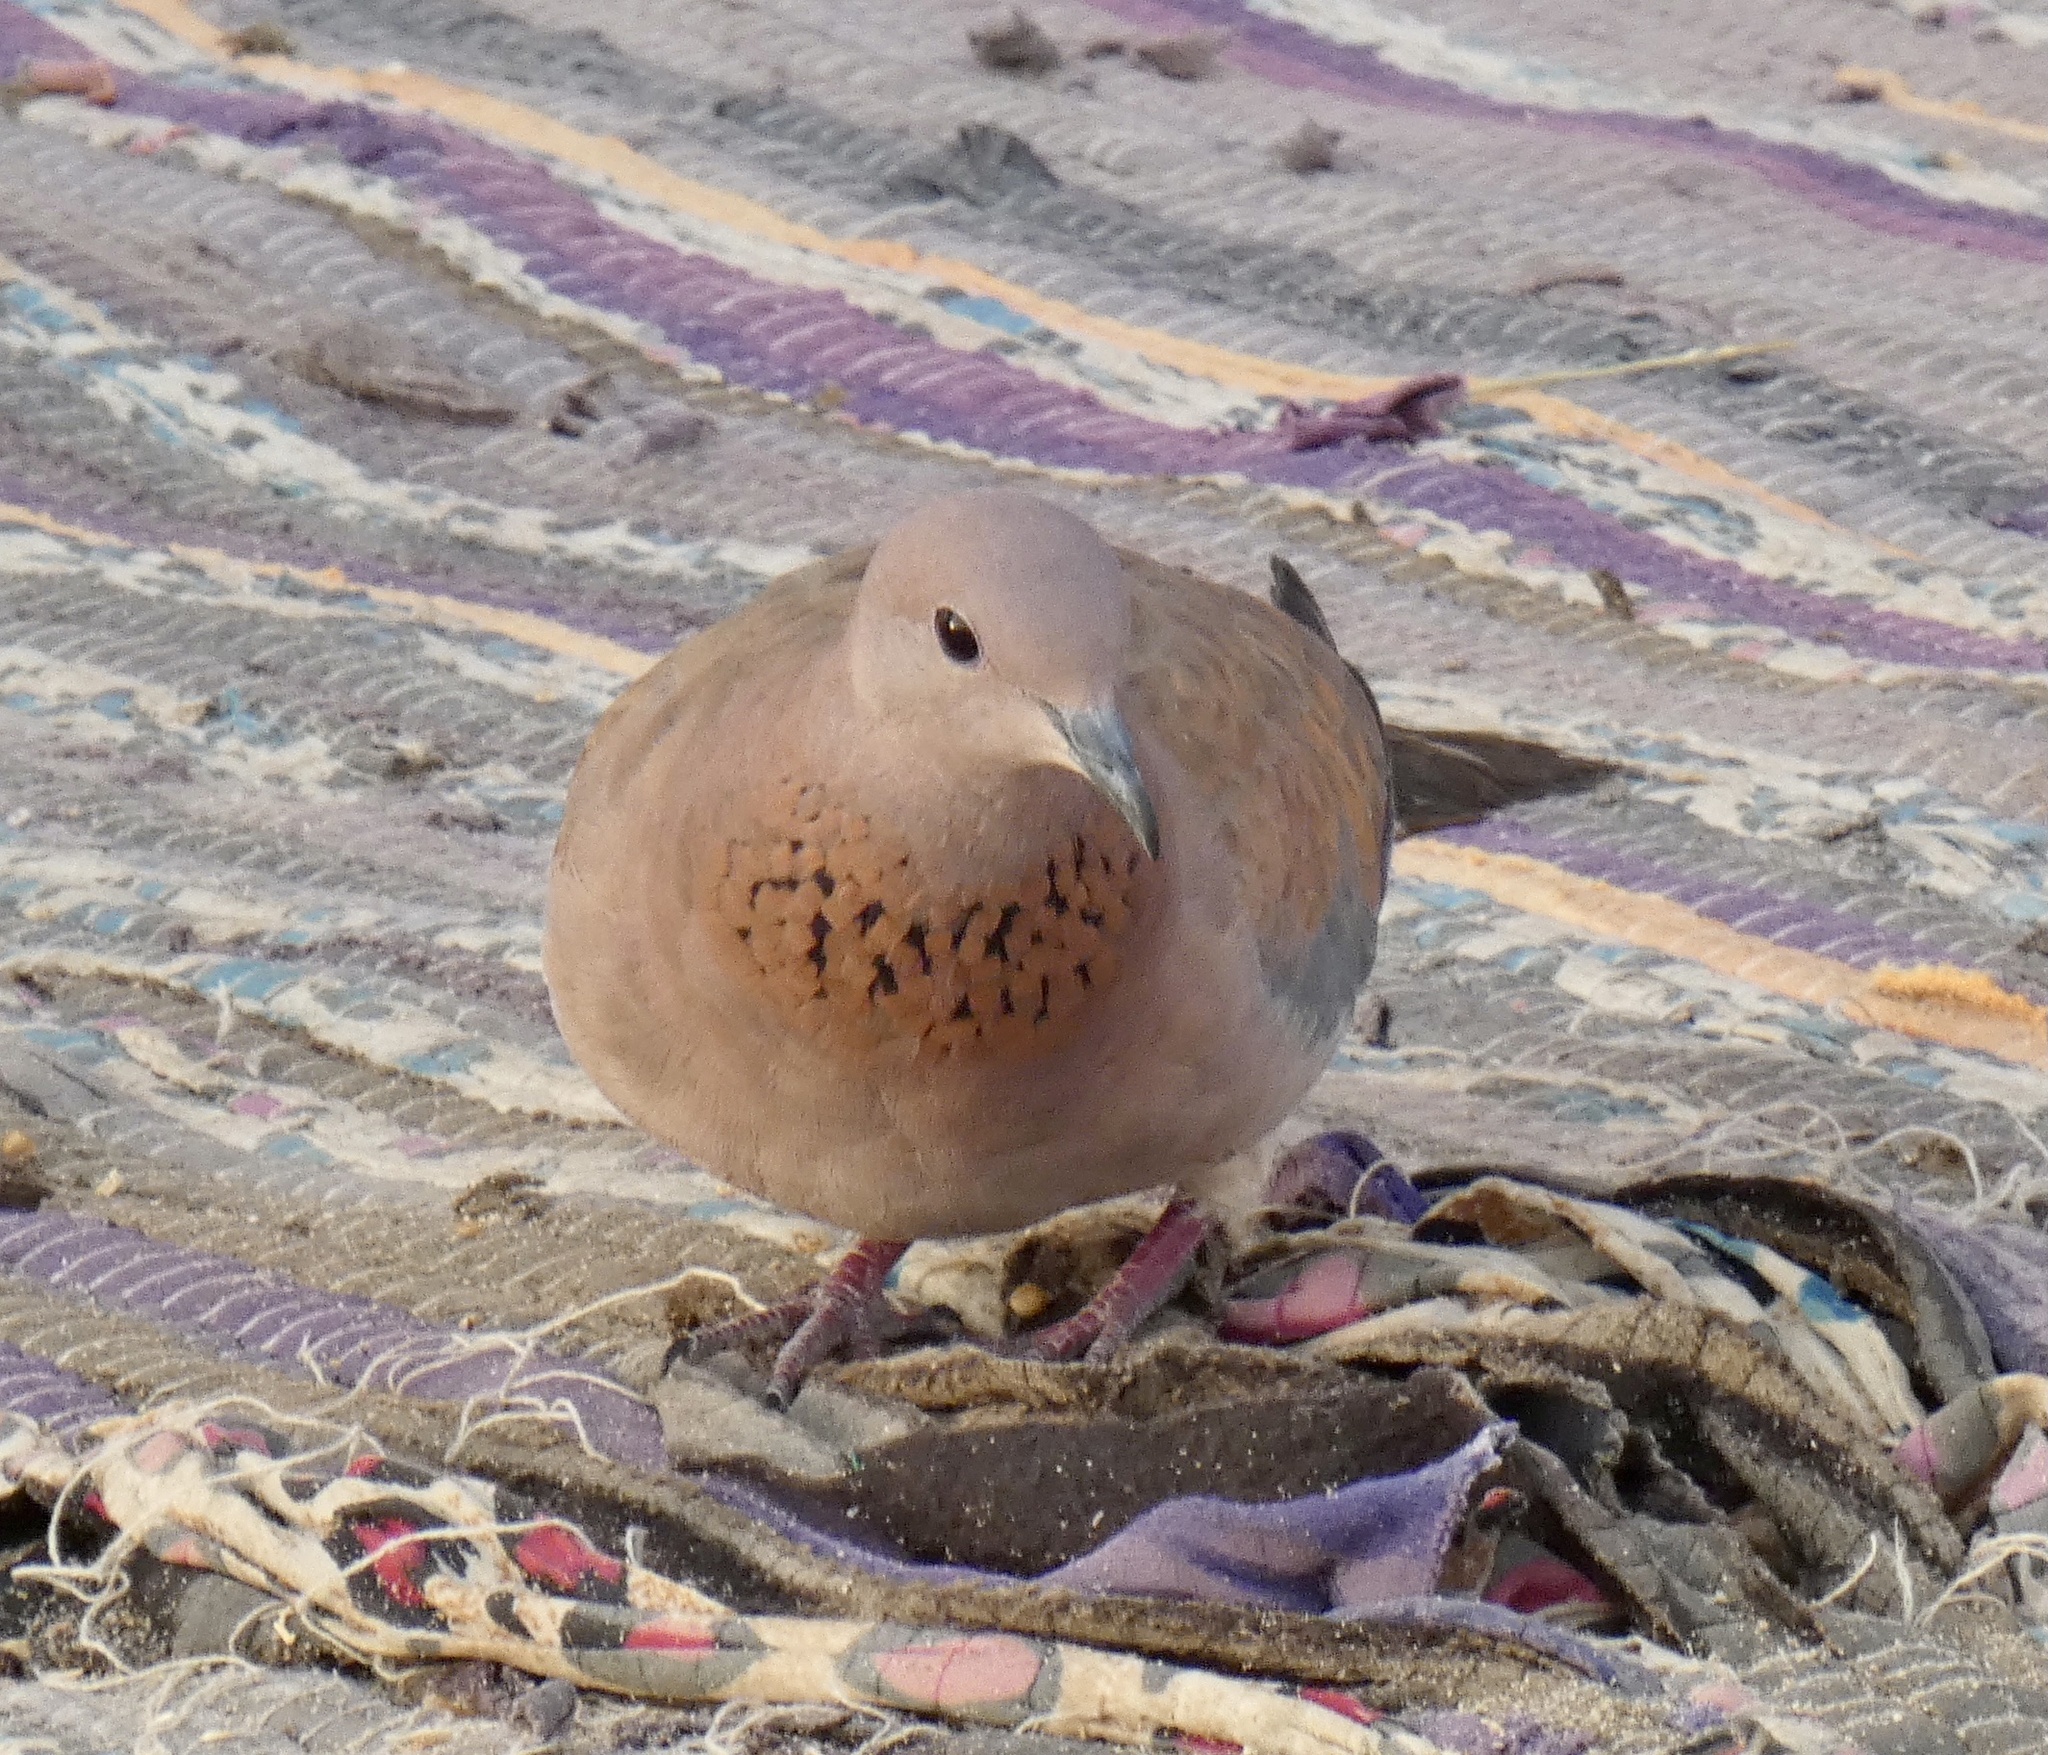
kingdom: Animalia
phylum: Chordata
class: Aves
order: Columbiformes
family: Columbidae
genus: Spilopelia
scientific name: Spilopelia senegalensis
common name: Laughing dove
